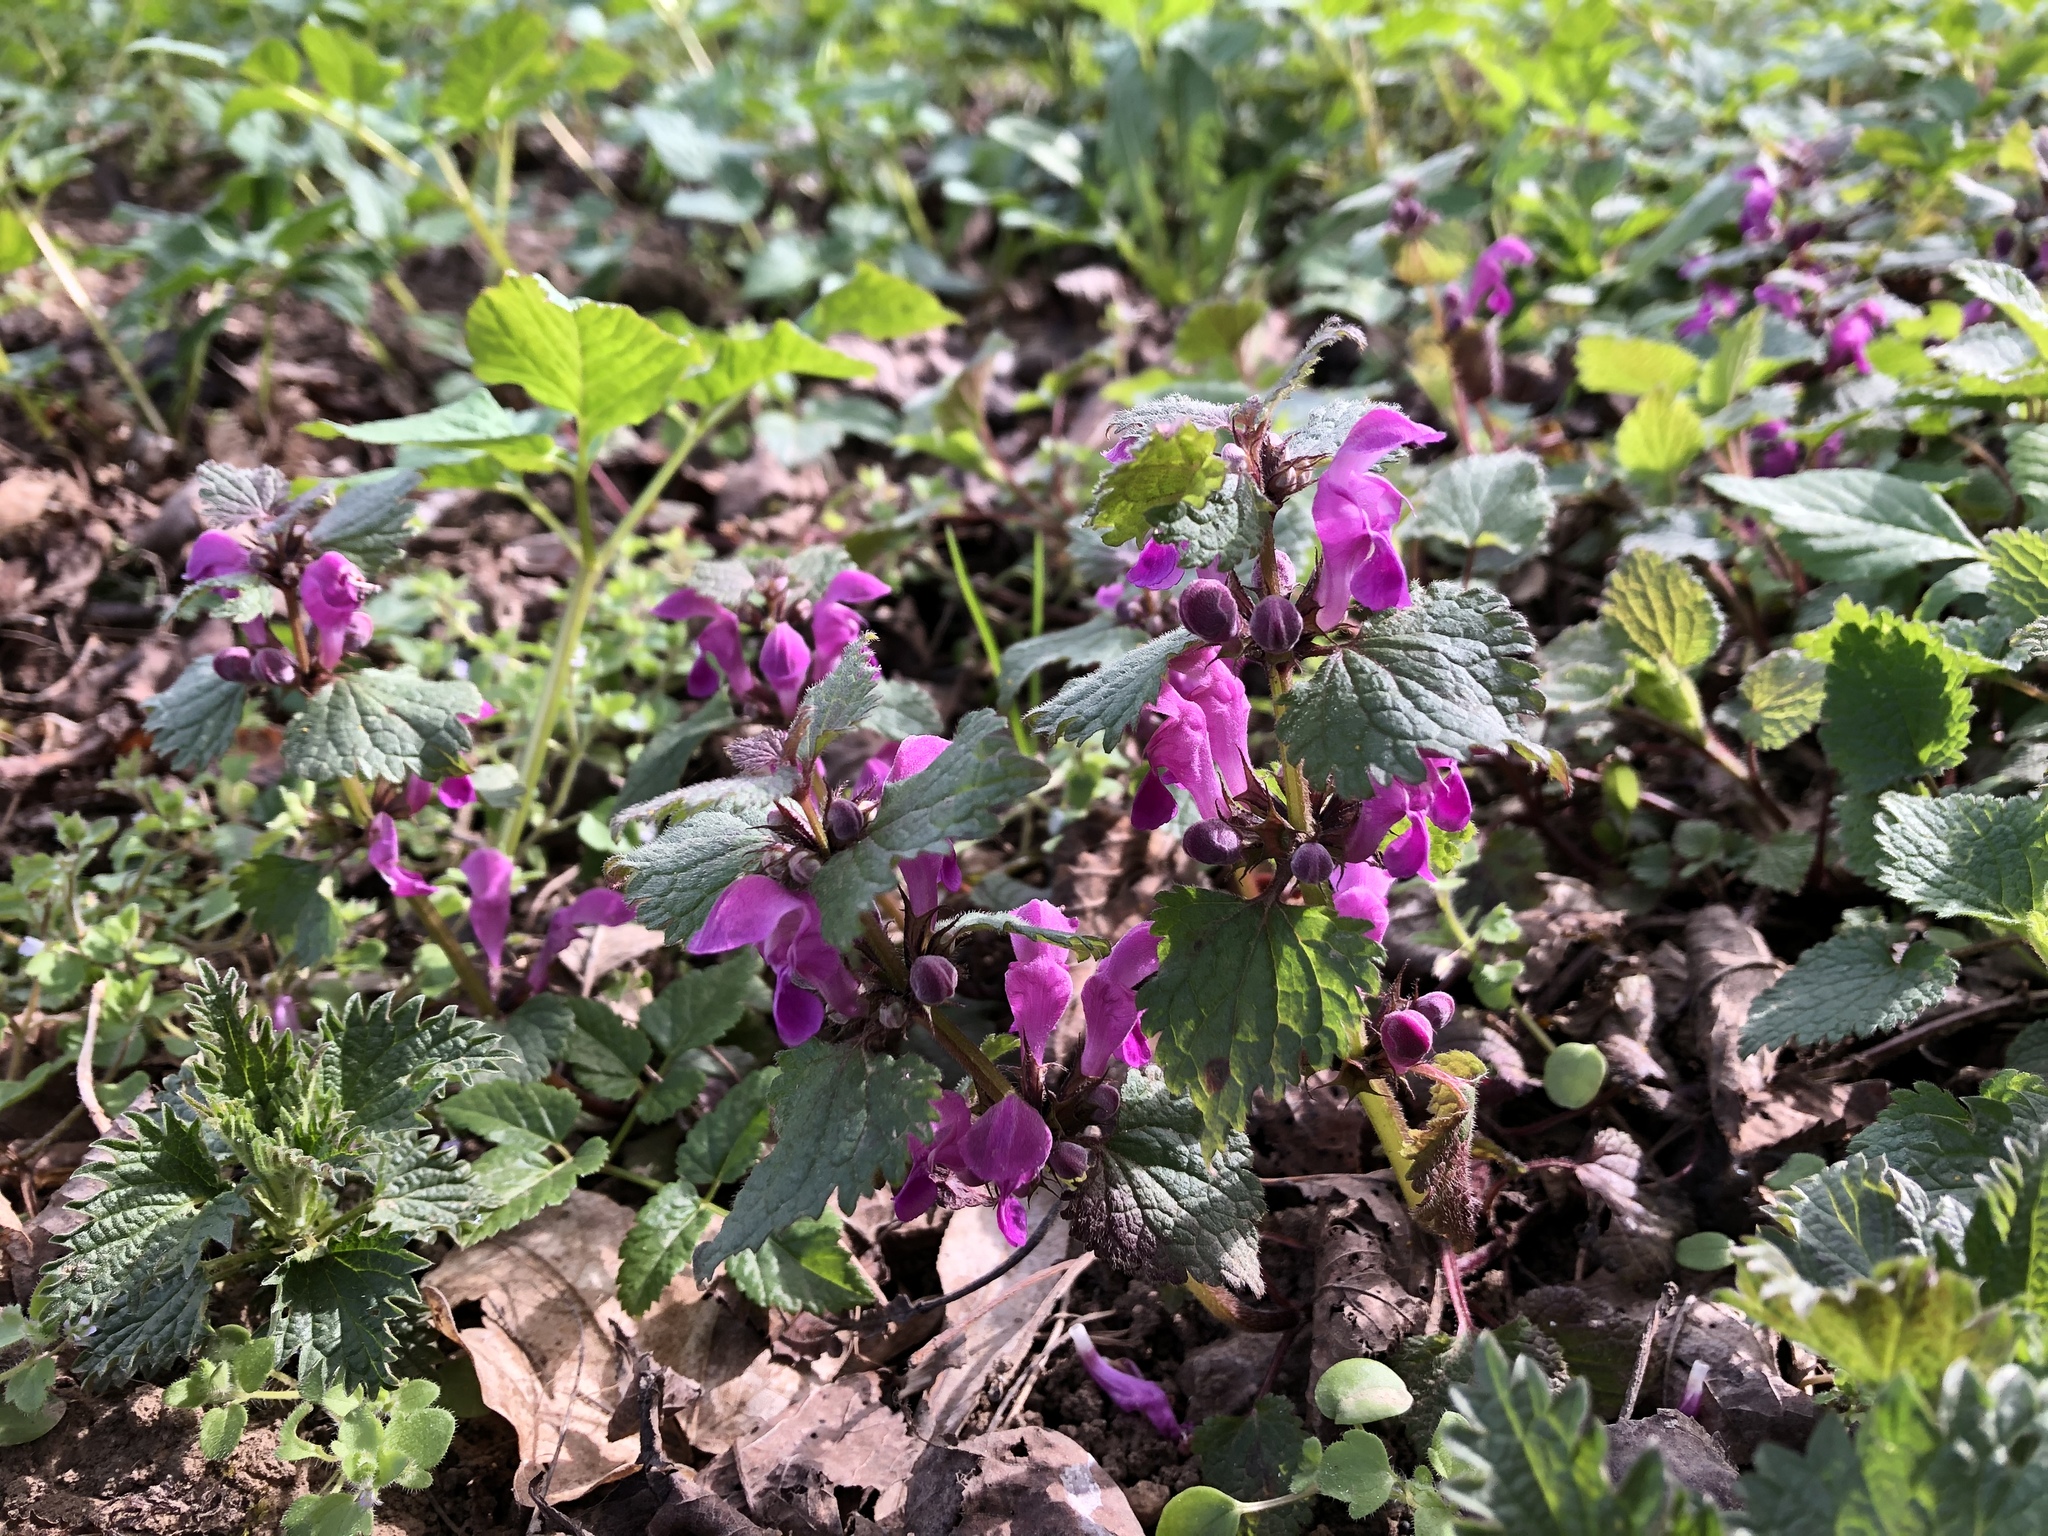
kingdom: Plantae
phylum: Tracheophyta
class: Magnoliopsida
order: Lamiales
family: Lamiaceae
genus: Lamium
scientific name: Lamium maculatum
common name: Spotted dead-nettle
